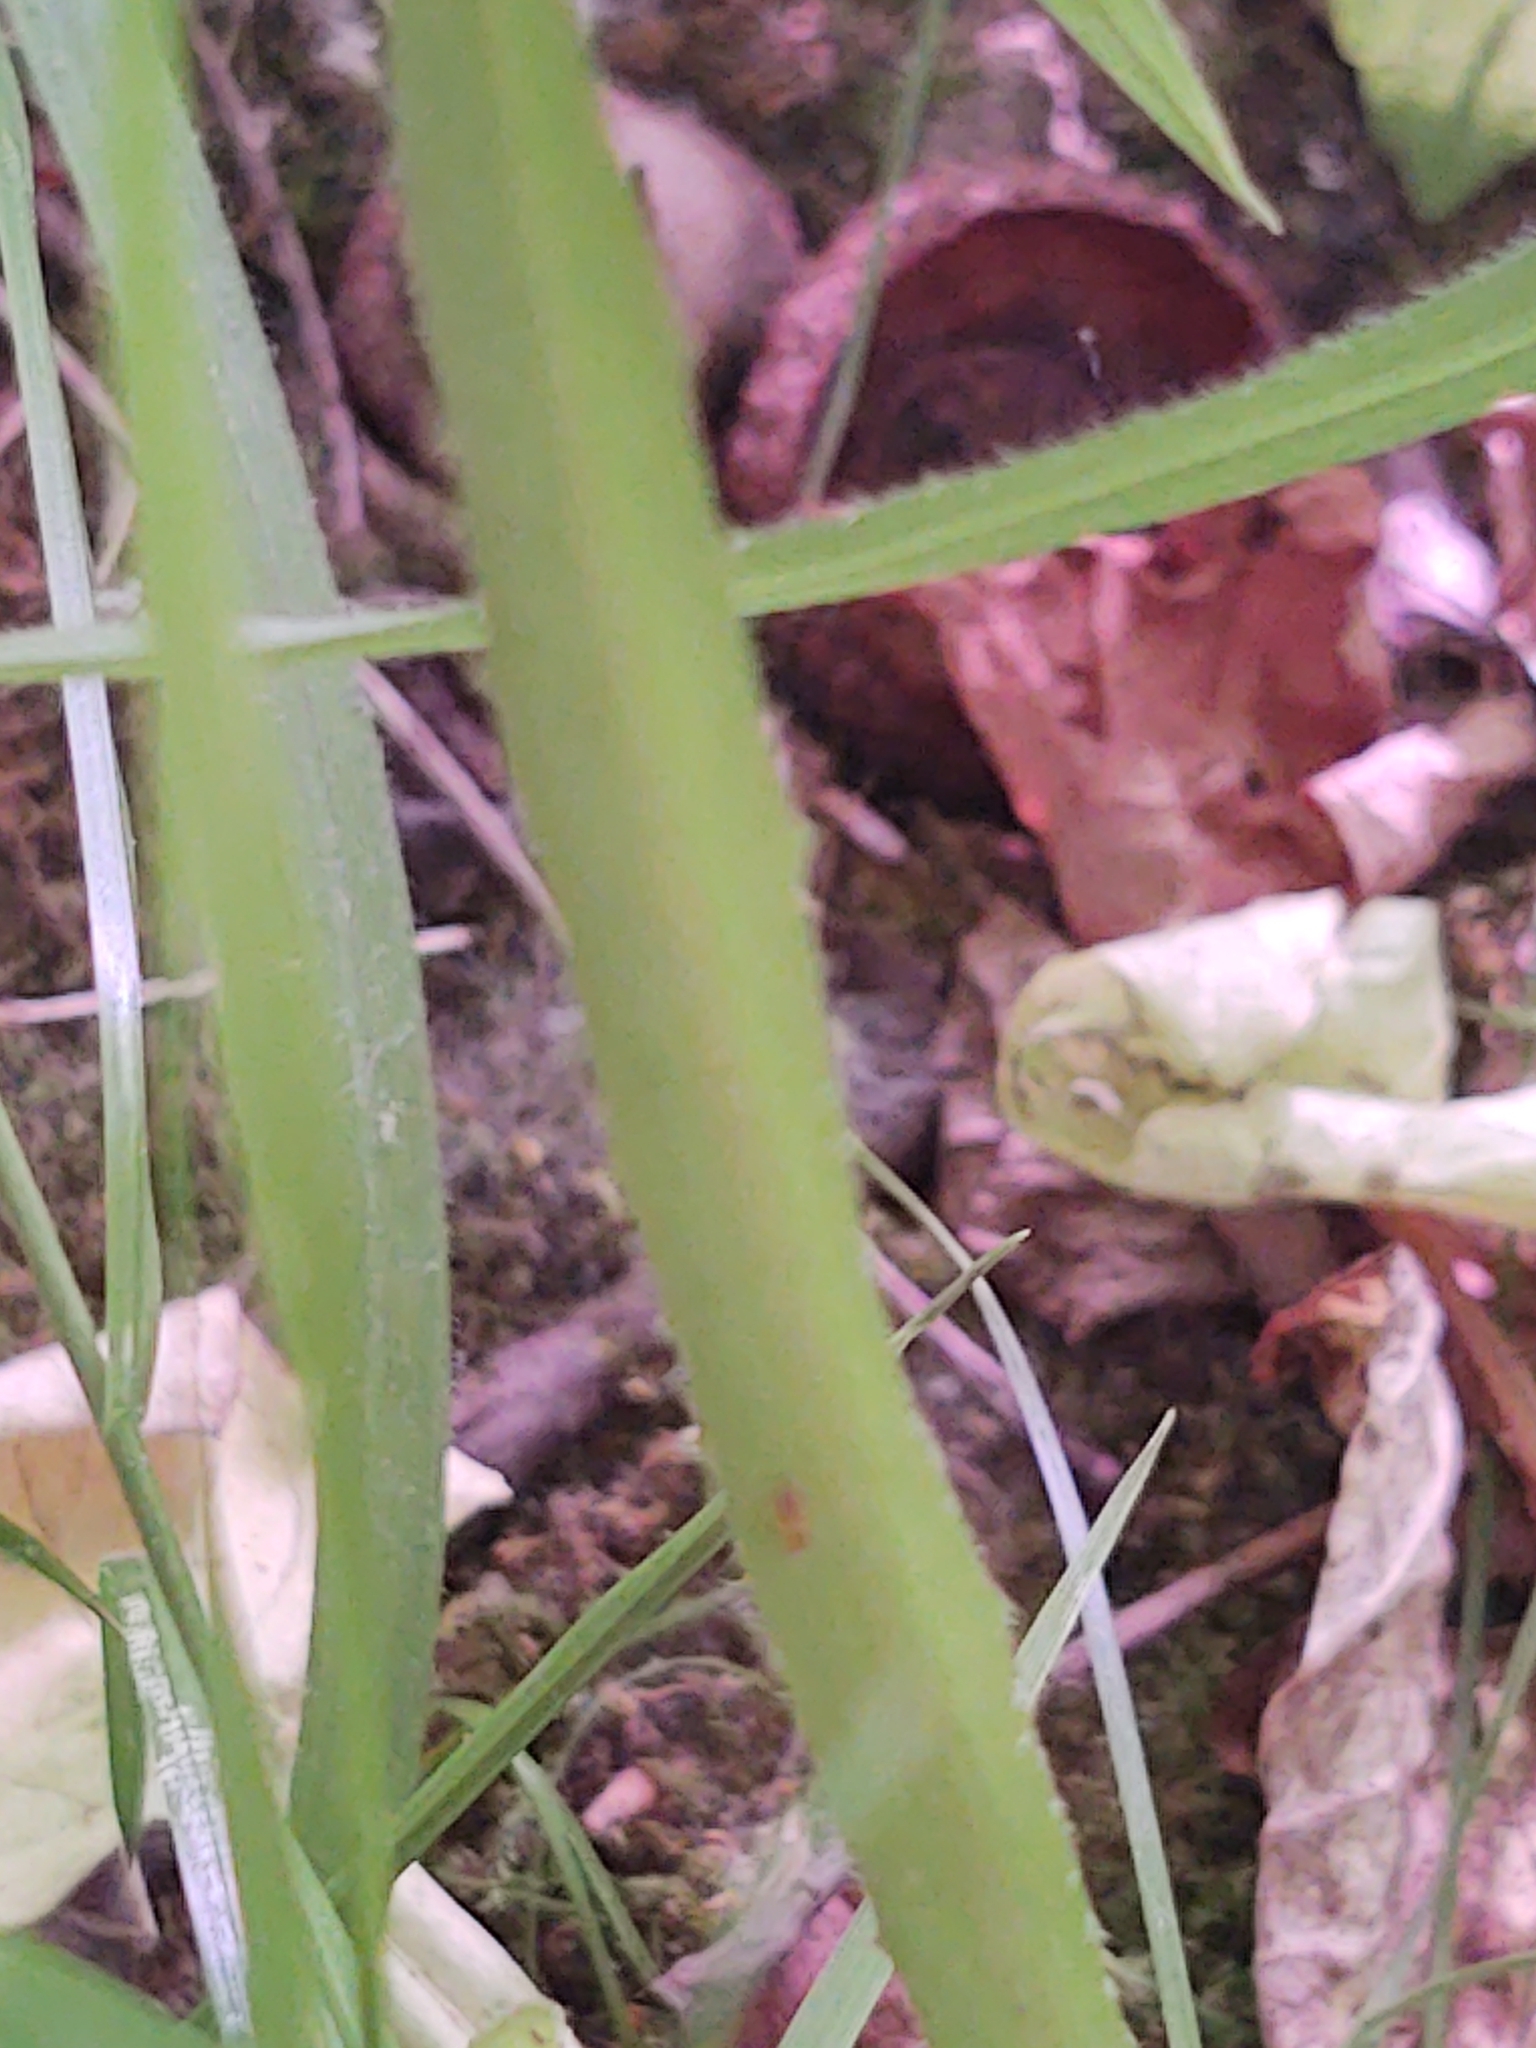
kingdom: Plantae
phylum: Tracheophyta
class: Magnoliopsida
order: Asterales
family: Asteraceae
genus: Nabalus
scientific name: Nabalus
